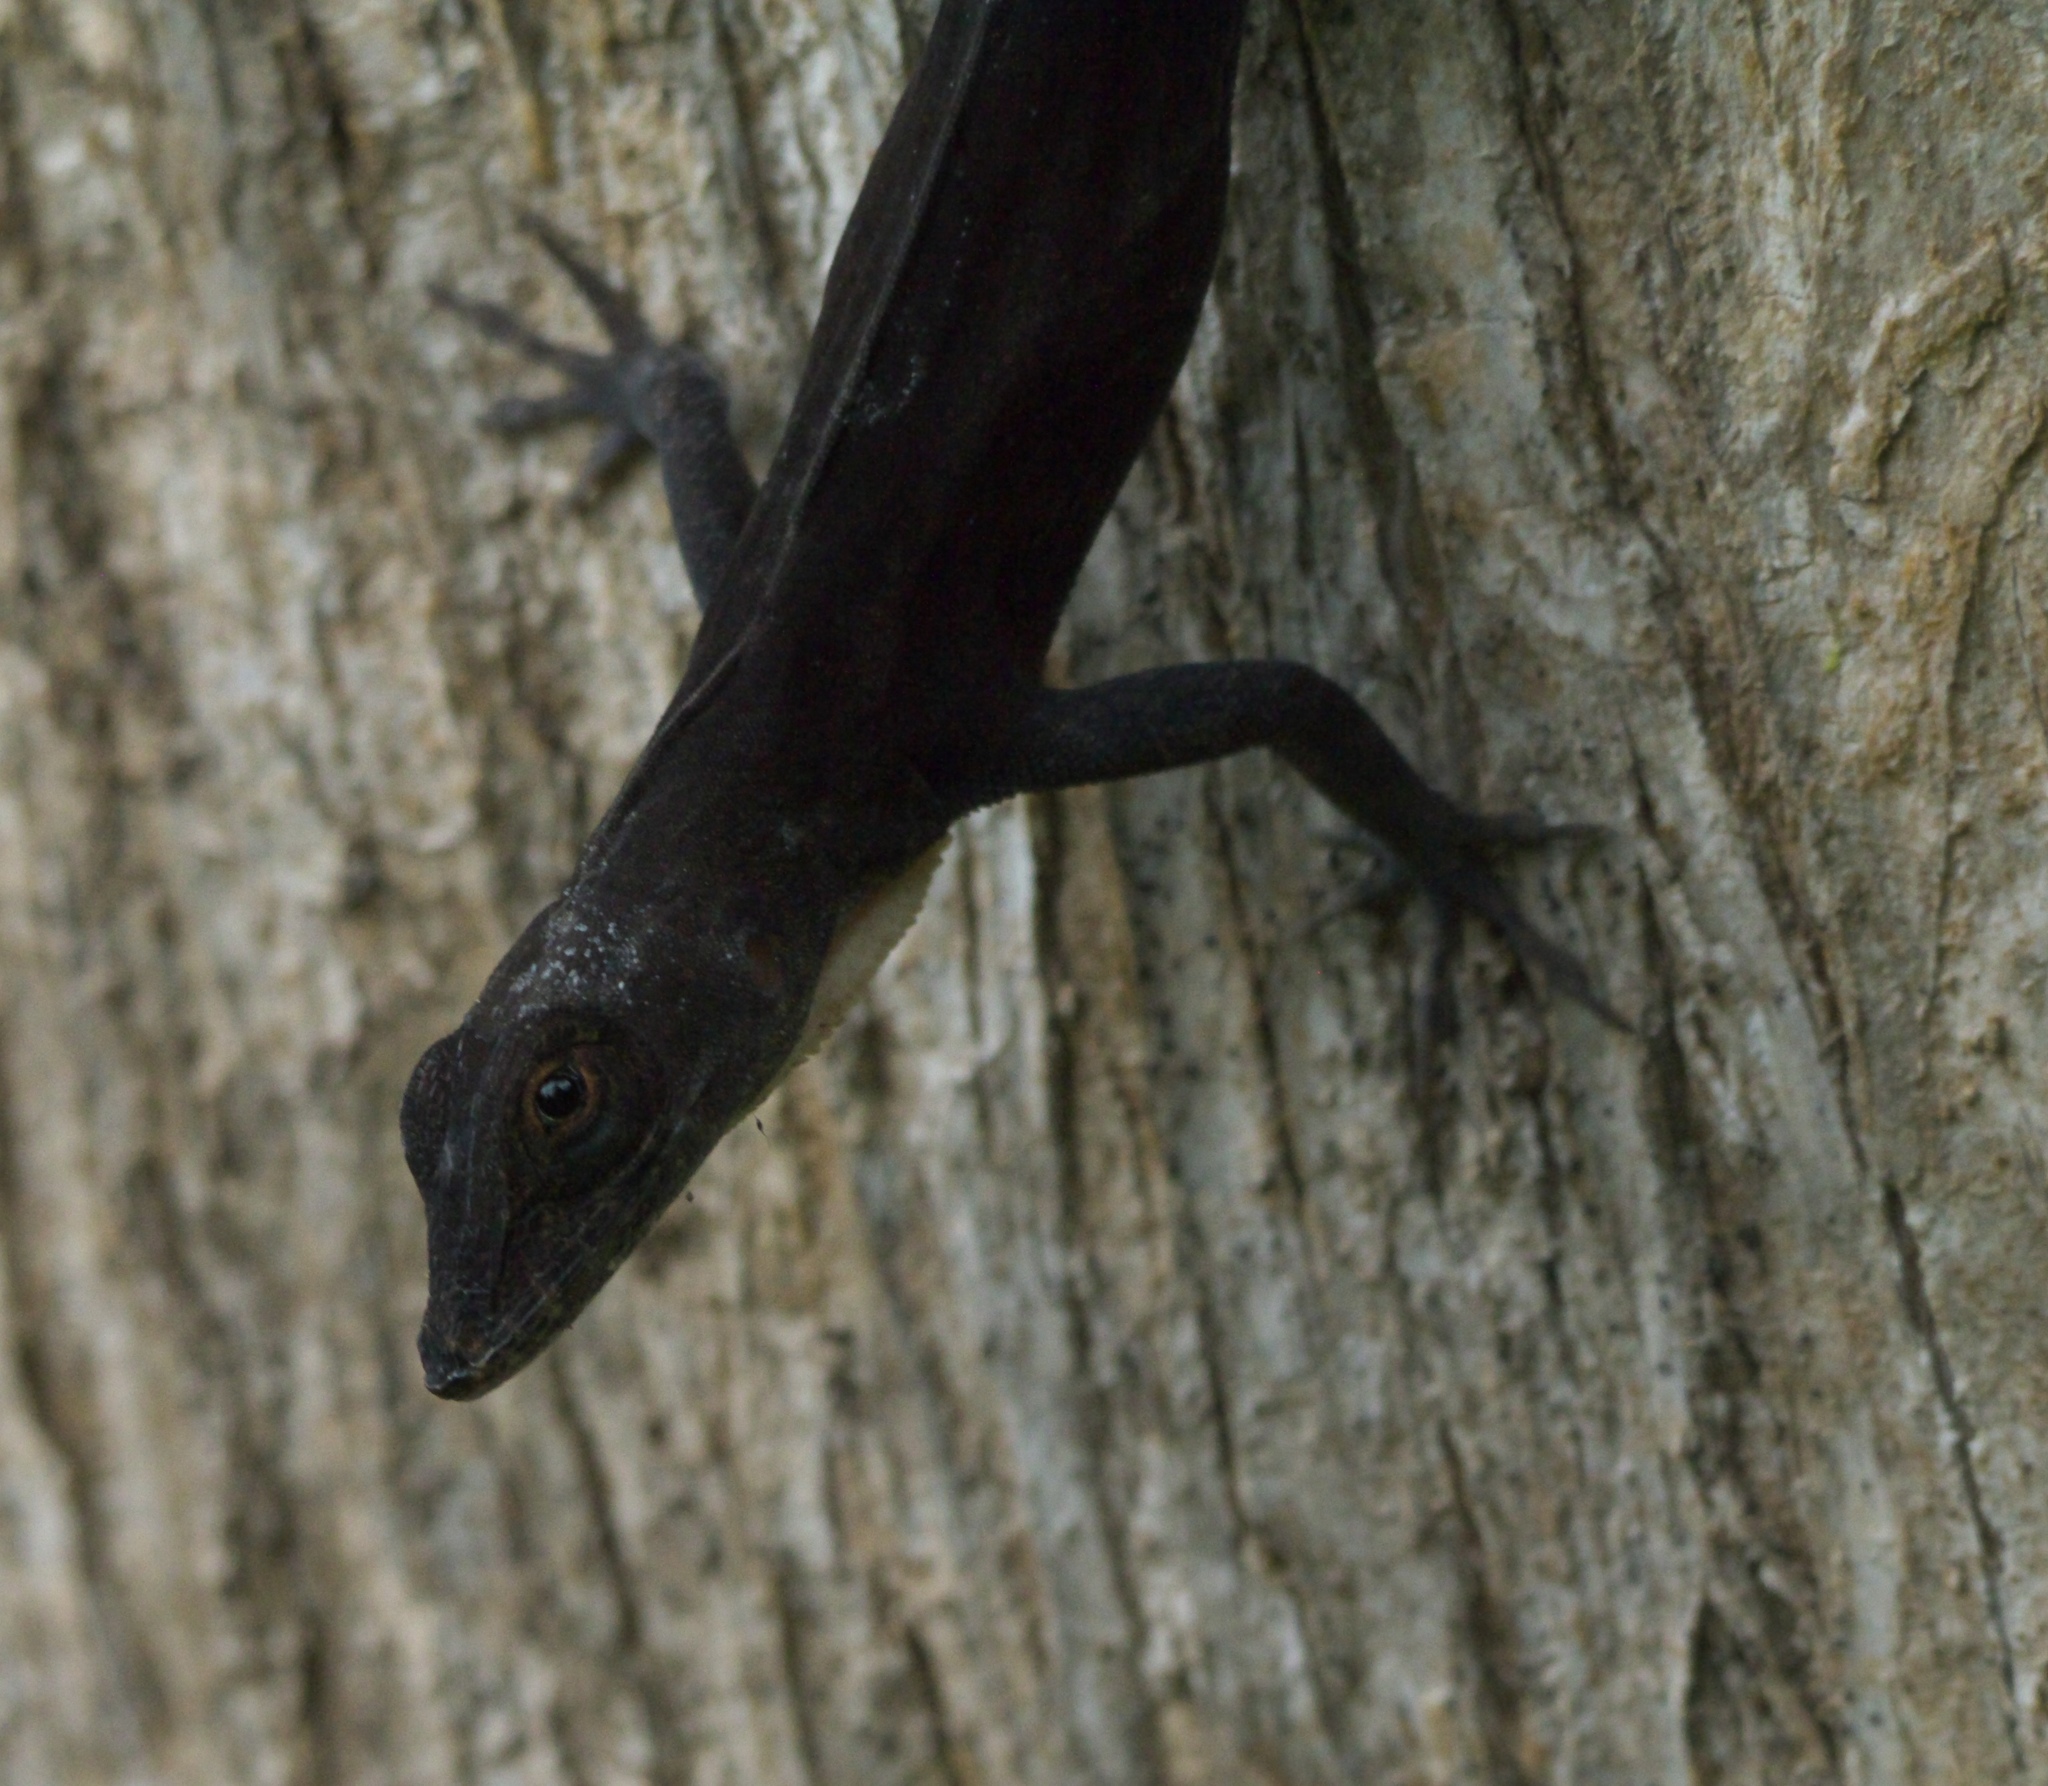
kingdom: Animalia
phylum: Chordata
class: Squamata
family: Dactyloidae
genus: Anolis
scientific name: Anolis homolechis
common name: Habana anole
